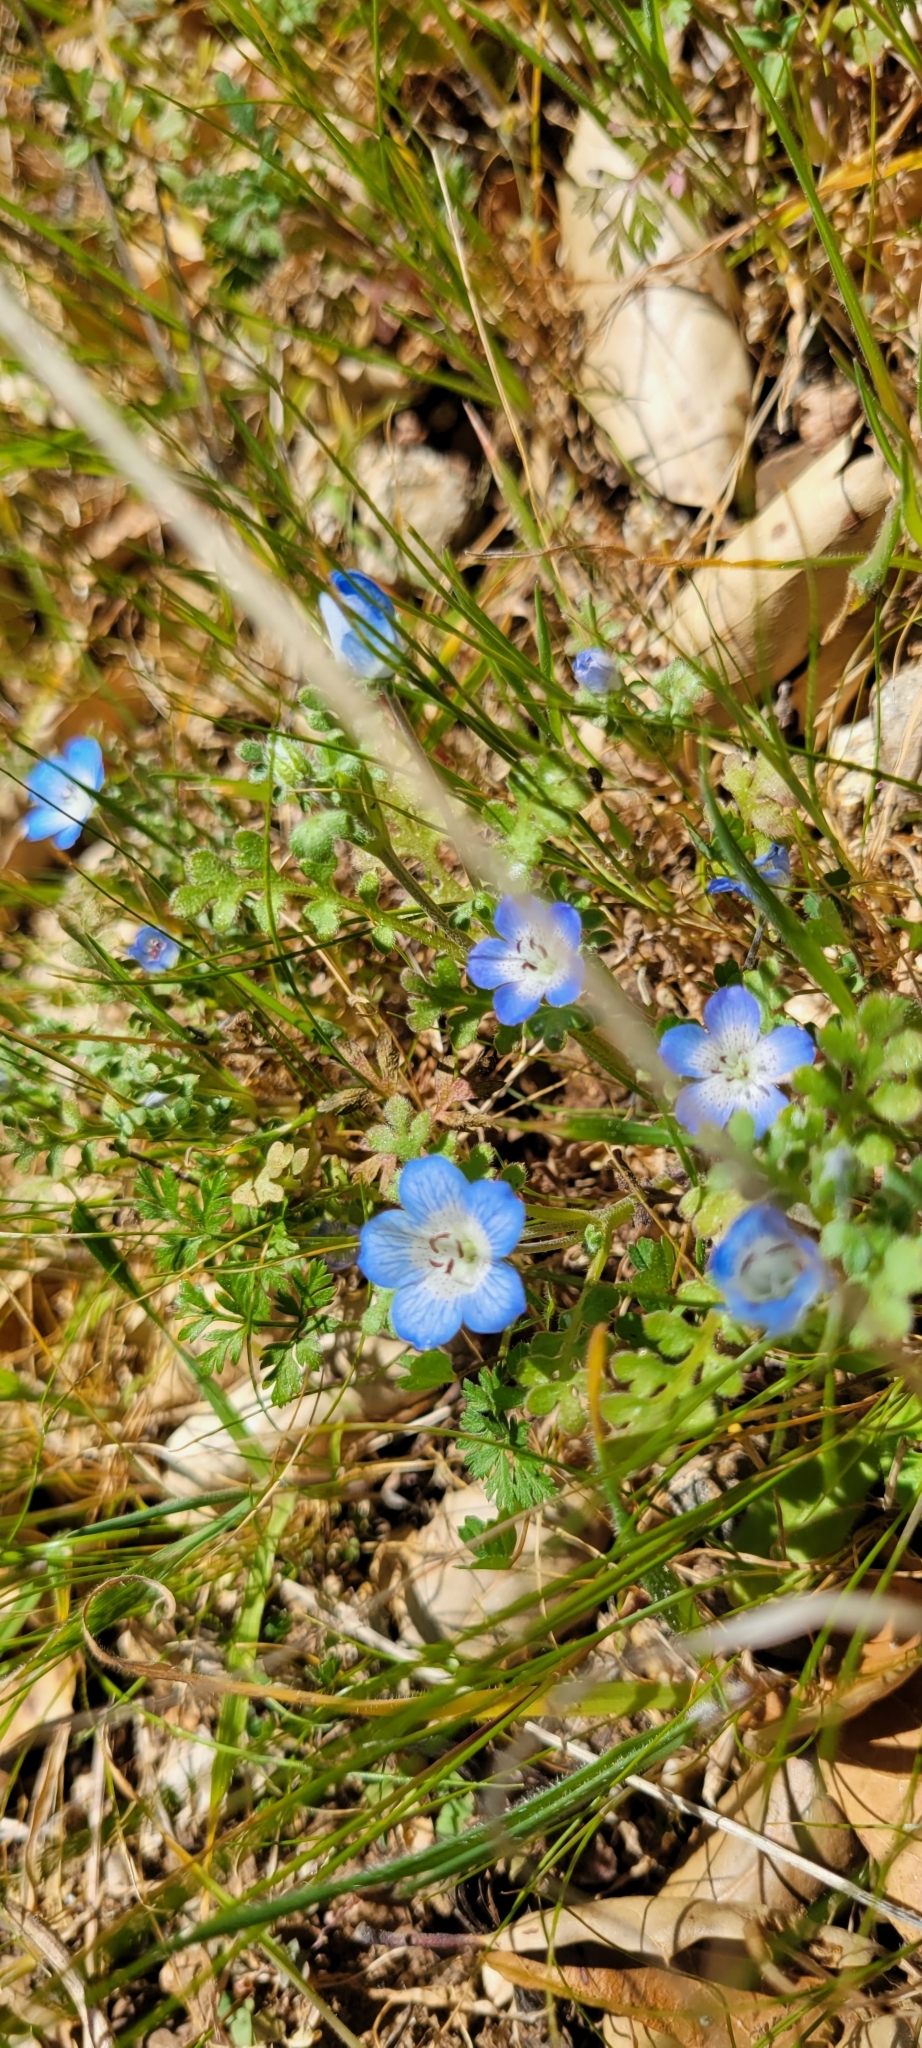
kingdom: Plantae
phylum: Tracheophyta
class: Magnoliopsida
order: Boraginales
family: Hydrophyllaceae
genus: Nemophila
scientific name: Nemophila menziesii
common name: Baby's-blue-eyes
